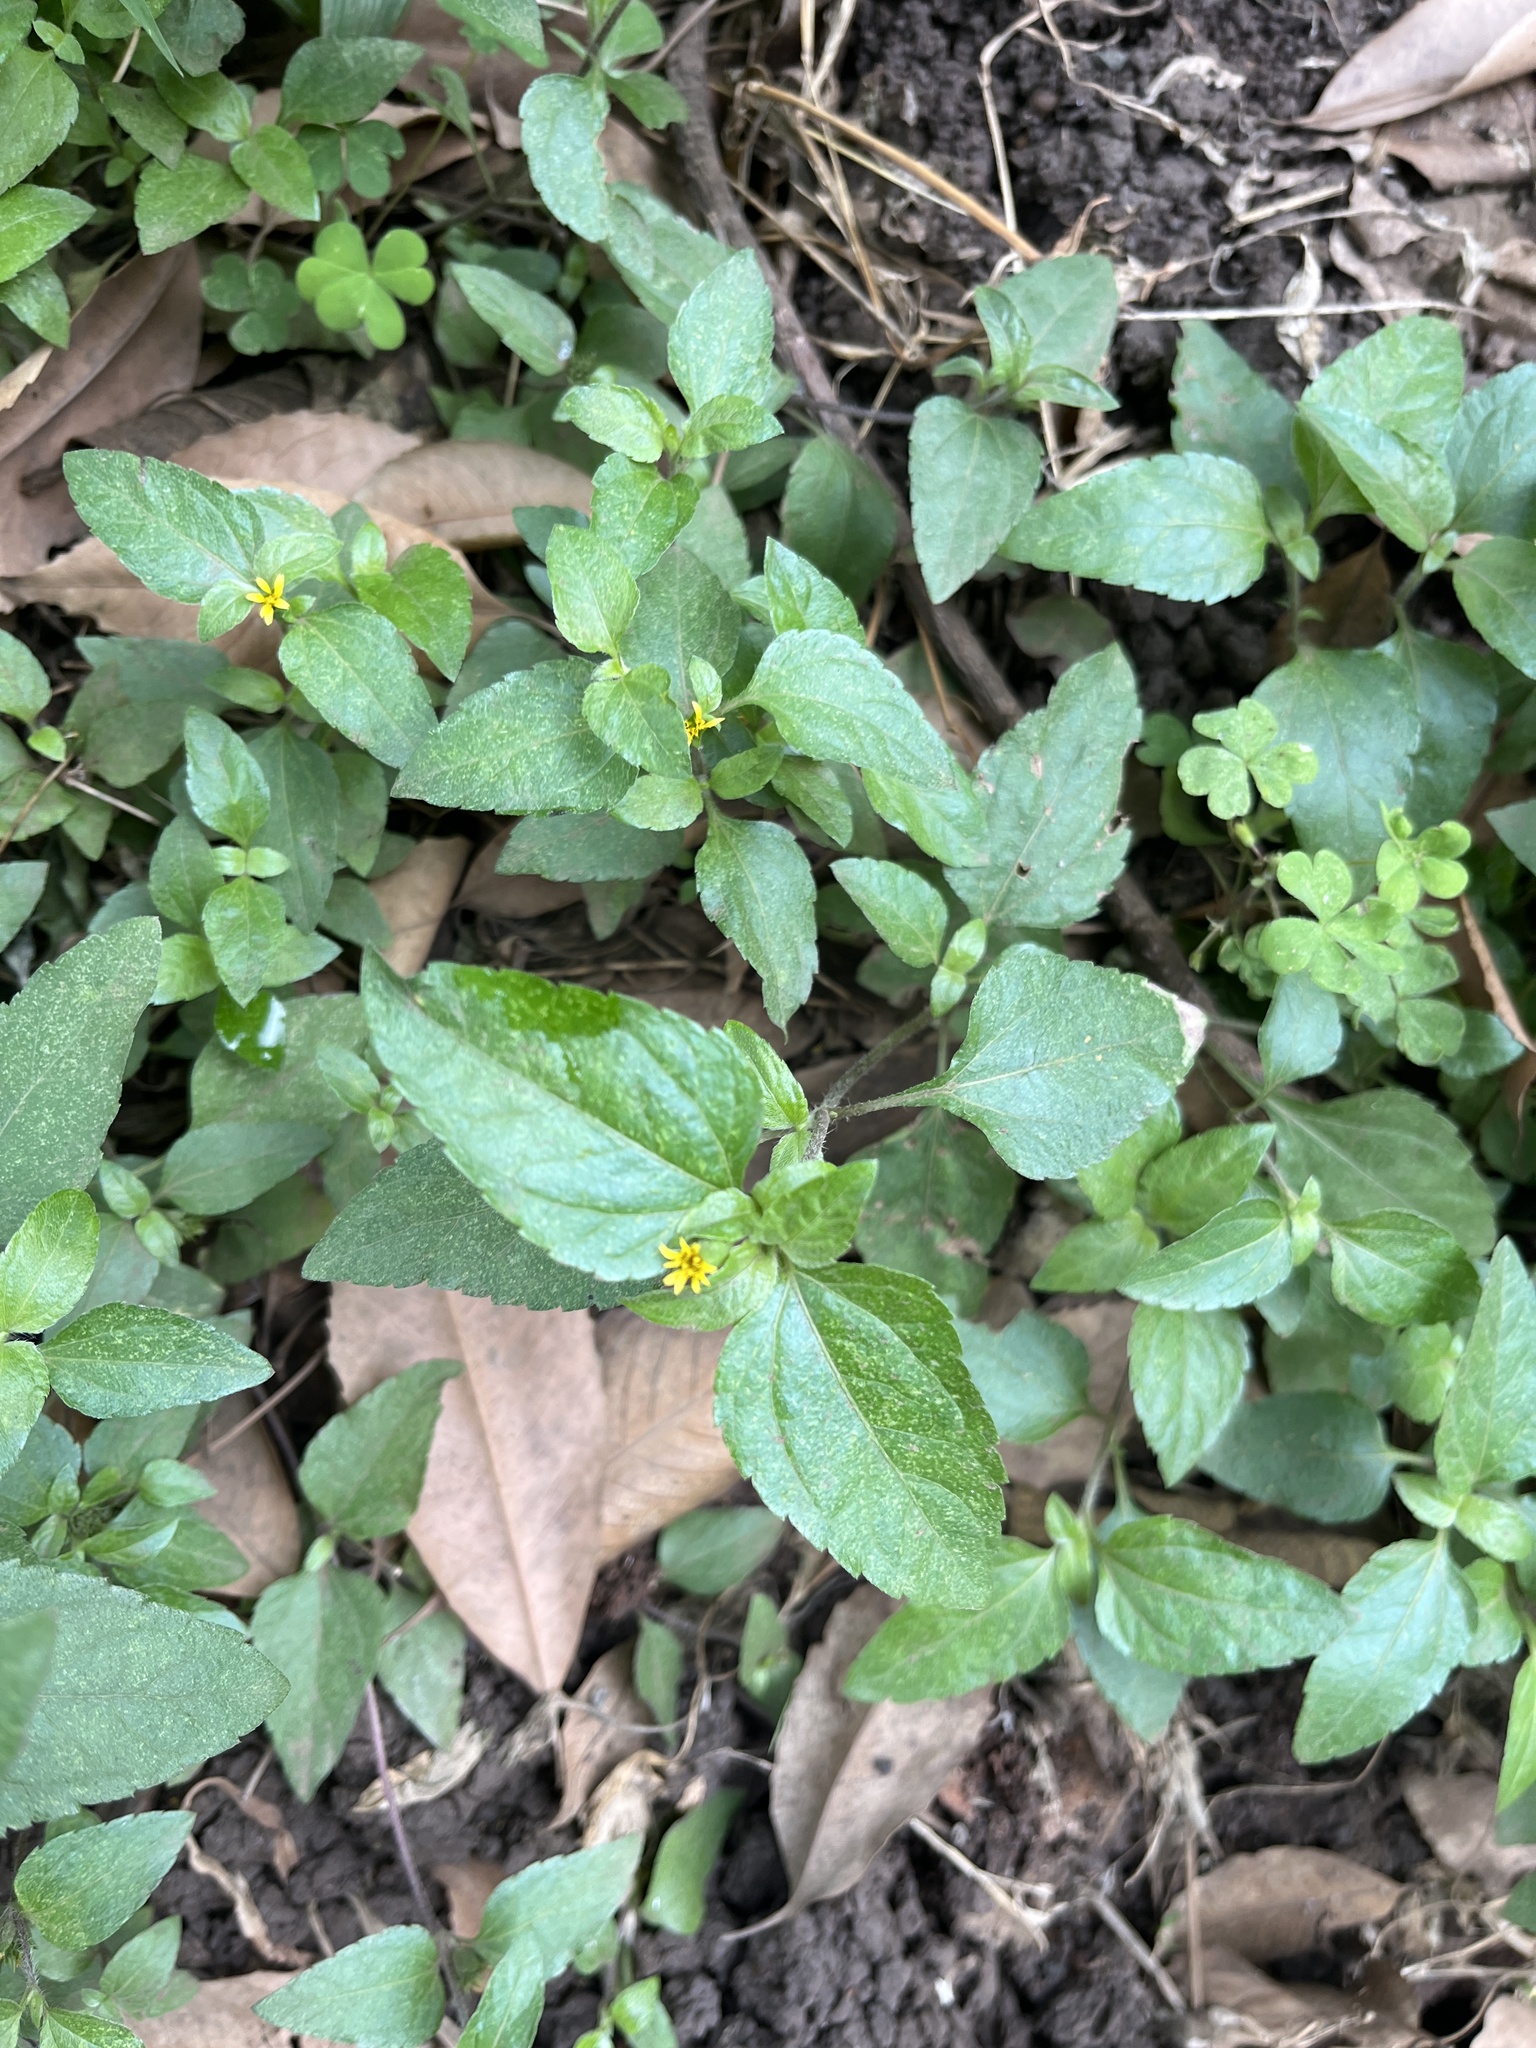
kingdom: Plantae
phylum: Tracheophyta
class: Magnoliopsida
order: Asterales
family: Asteraceae
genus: Calyptocarpus
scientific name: Calyptocarpus vialis
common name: Straggler daisy
